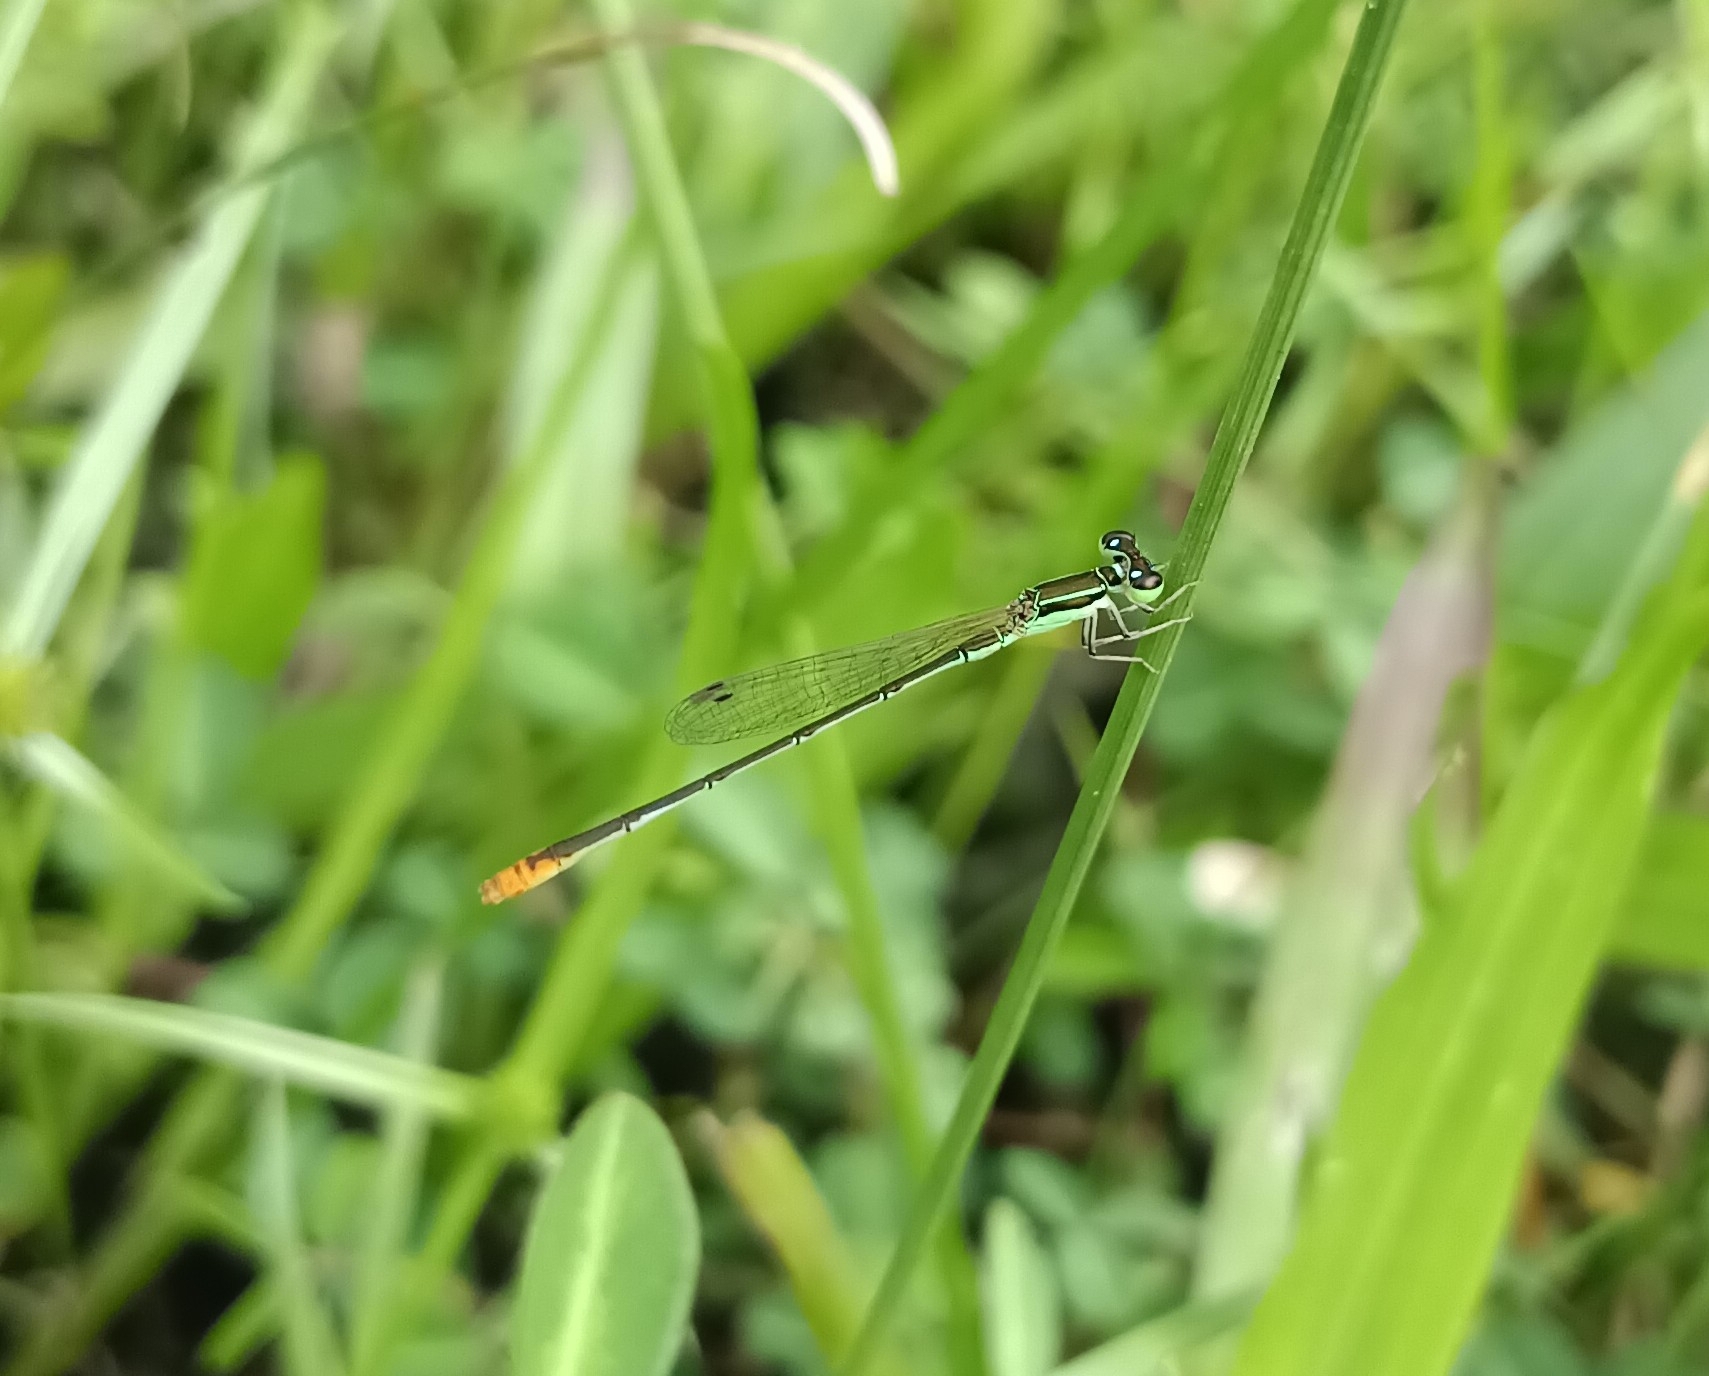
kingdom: Animalia
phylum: Arthropoda
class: Insecta
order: Odonata
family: Coenagrionidae
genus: Agriocnemis
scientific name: Agriocnemis pygmaea
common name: Pygmy wisp
